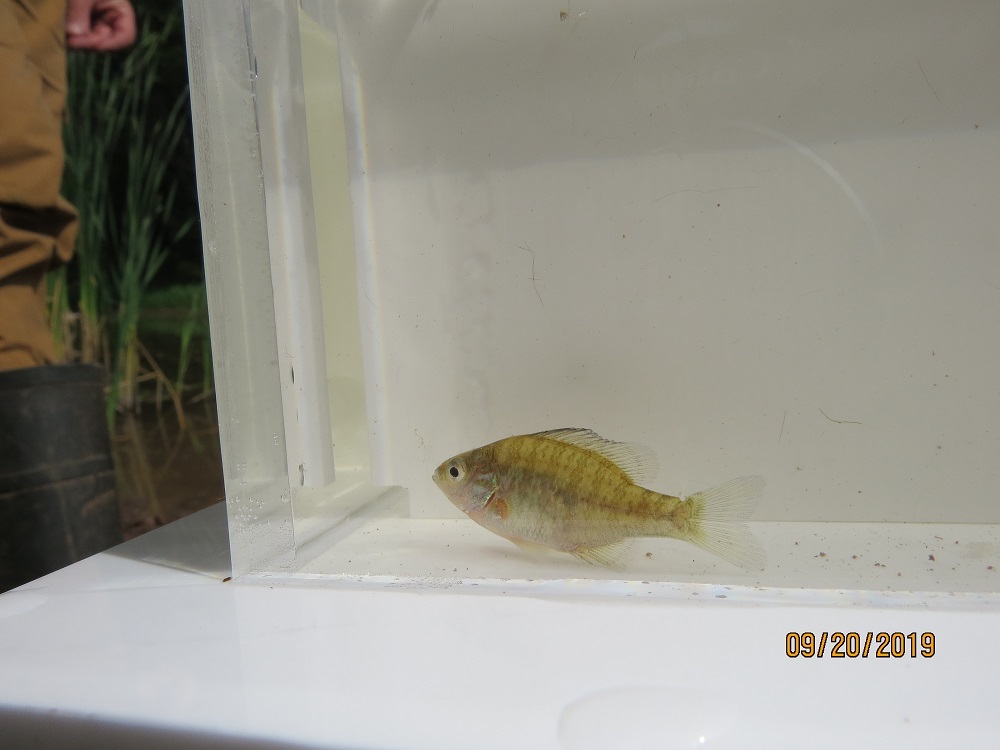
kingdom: Animalia
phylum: Chordata
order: Perciformes
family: Centrarchidae
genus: Lepomis
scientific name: Lepomis gibbosus
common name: Pumpkinseed
